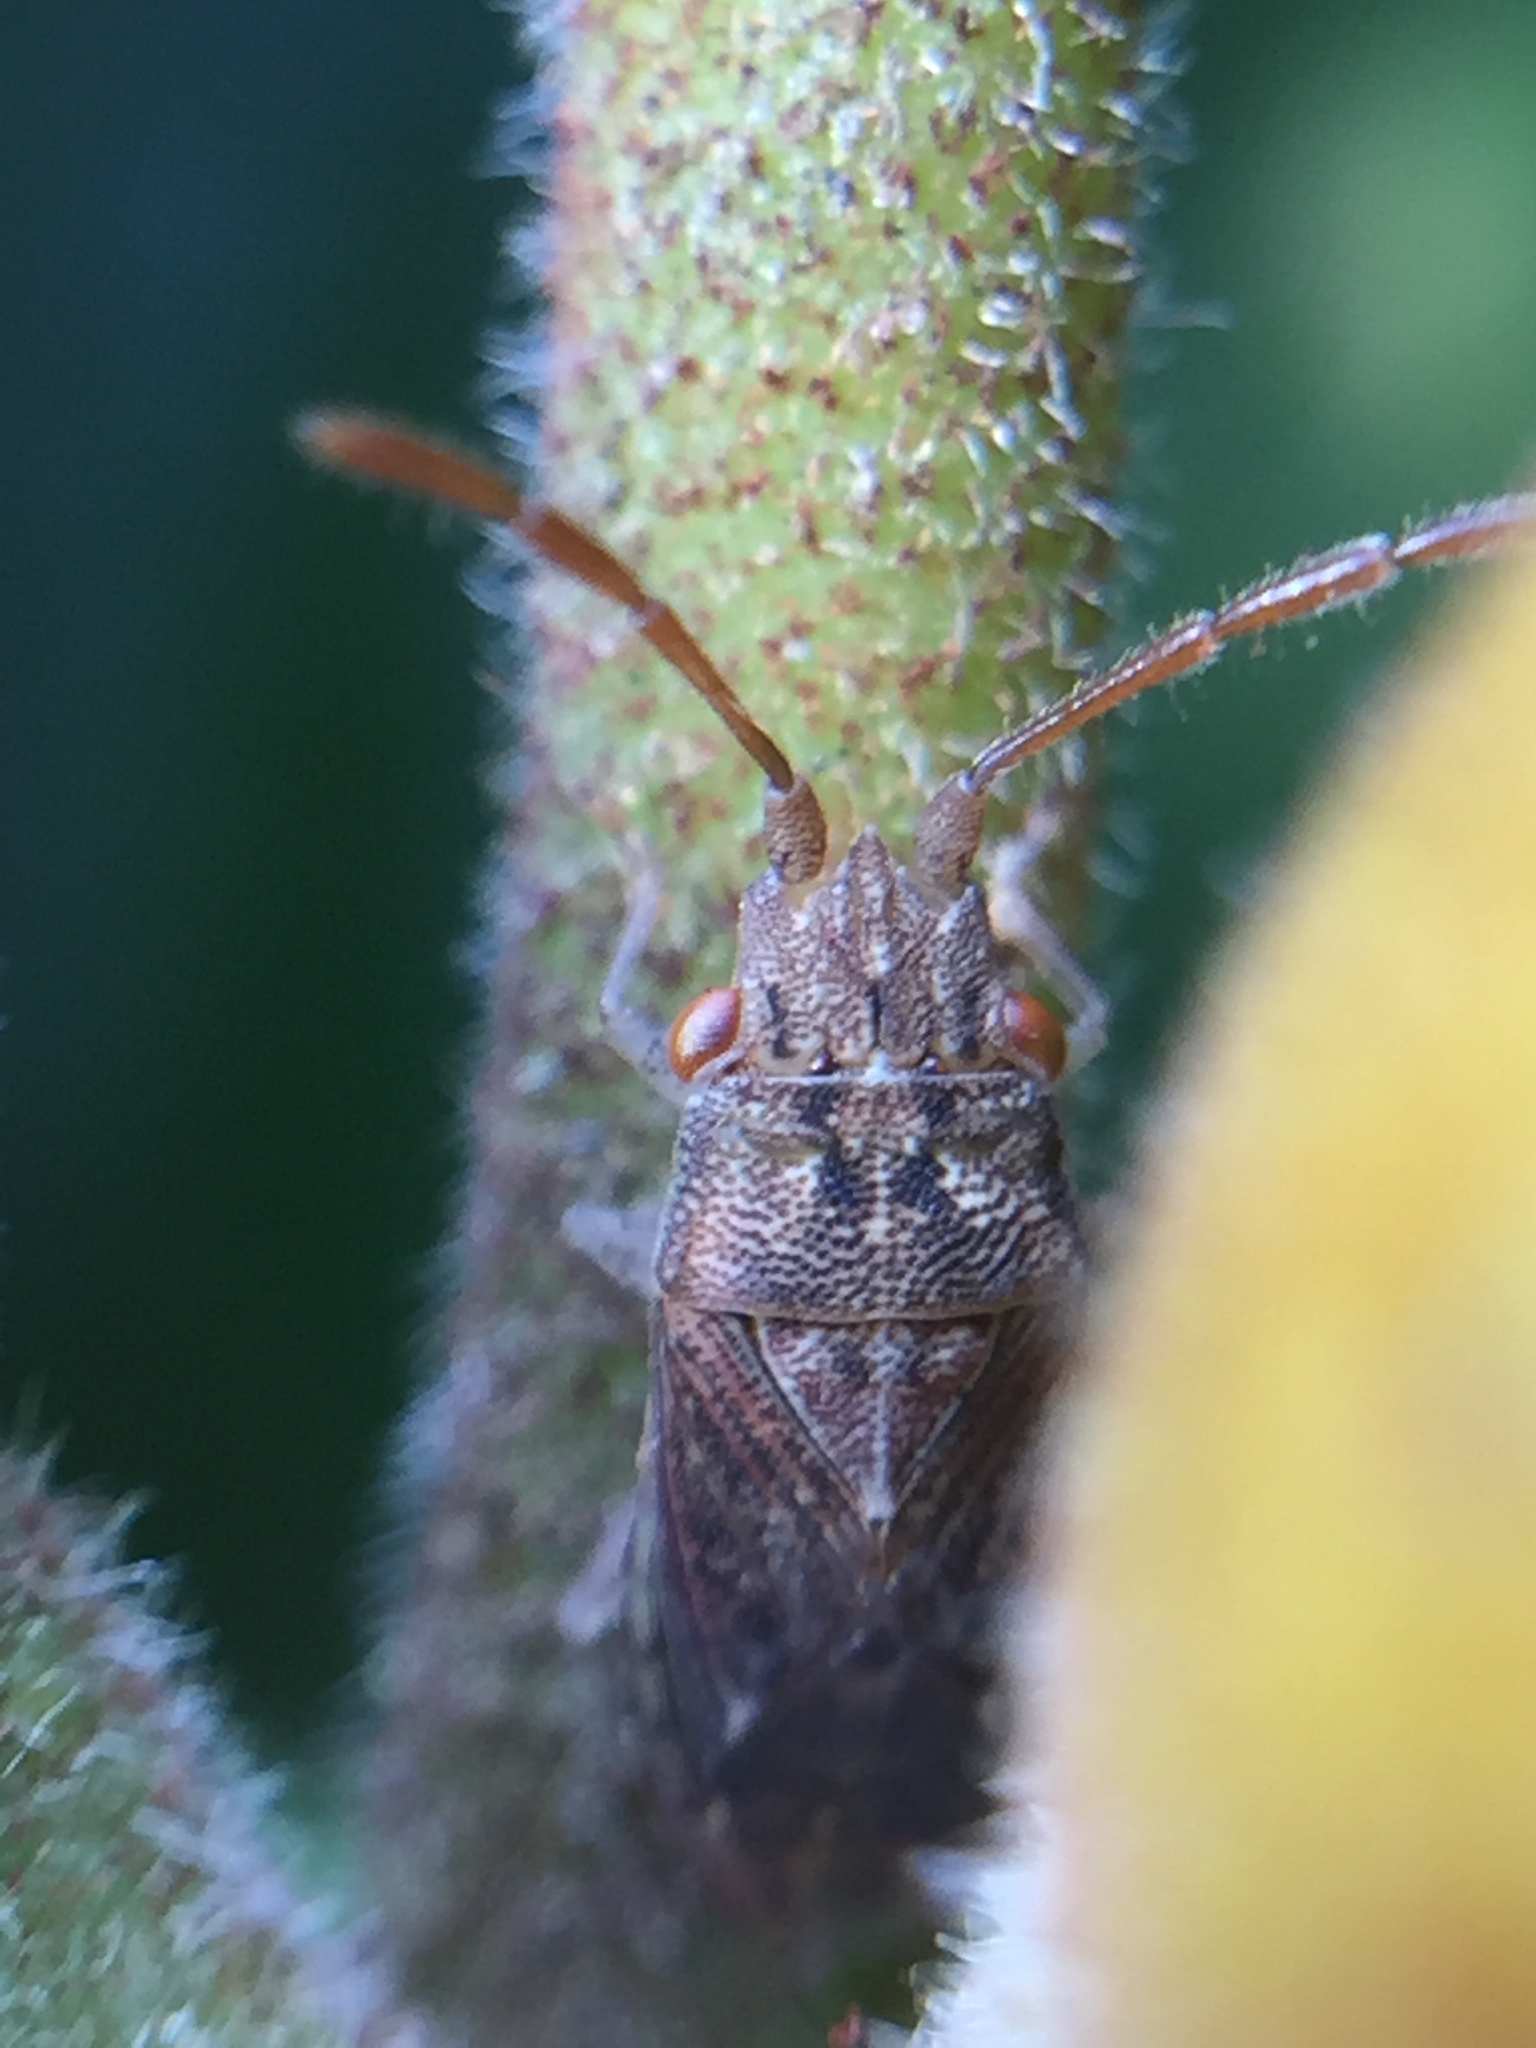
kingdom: Animalia
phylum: Arthropoda
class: Insecta
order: Hemiptera
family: Meschiidae
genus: Meschia
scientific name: Meschia barrowensis
